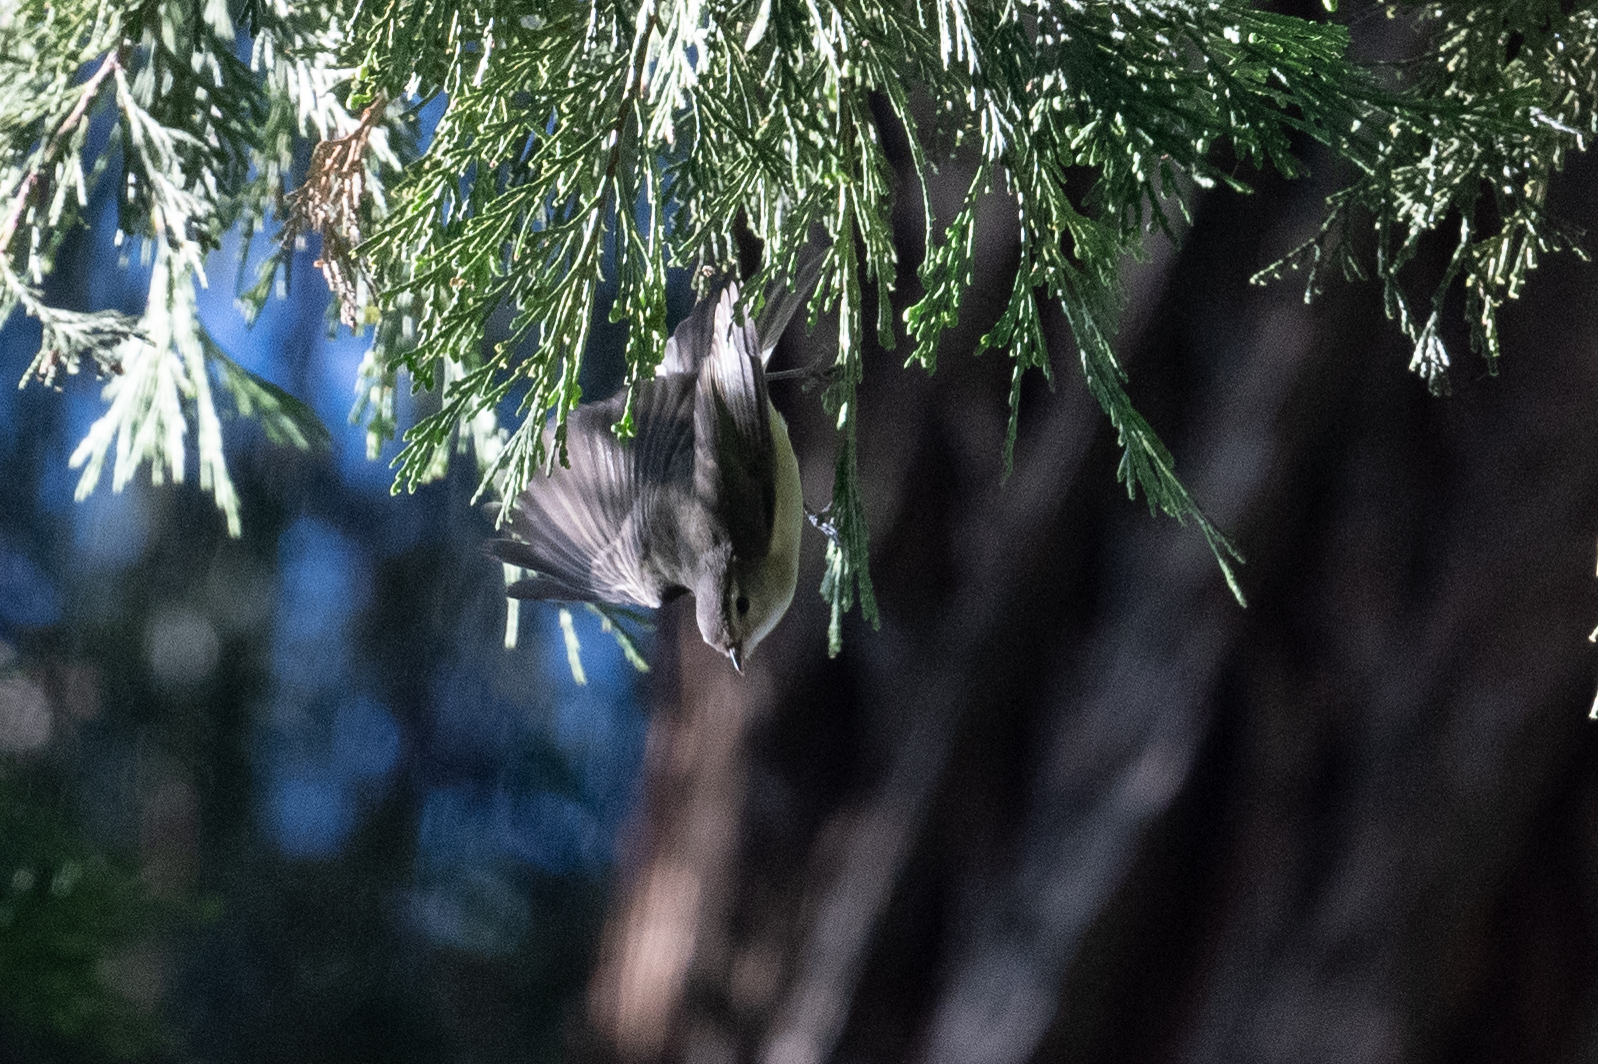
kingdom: Animalia
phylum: Chordata
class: Aves
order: Passeriformes
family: Vireonidae
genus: Vireo
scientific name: Vireo gilvus
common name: Warbling vireo
